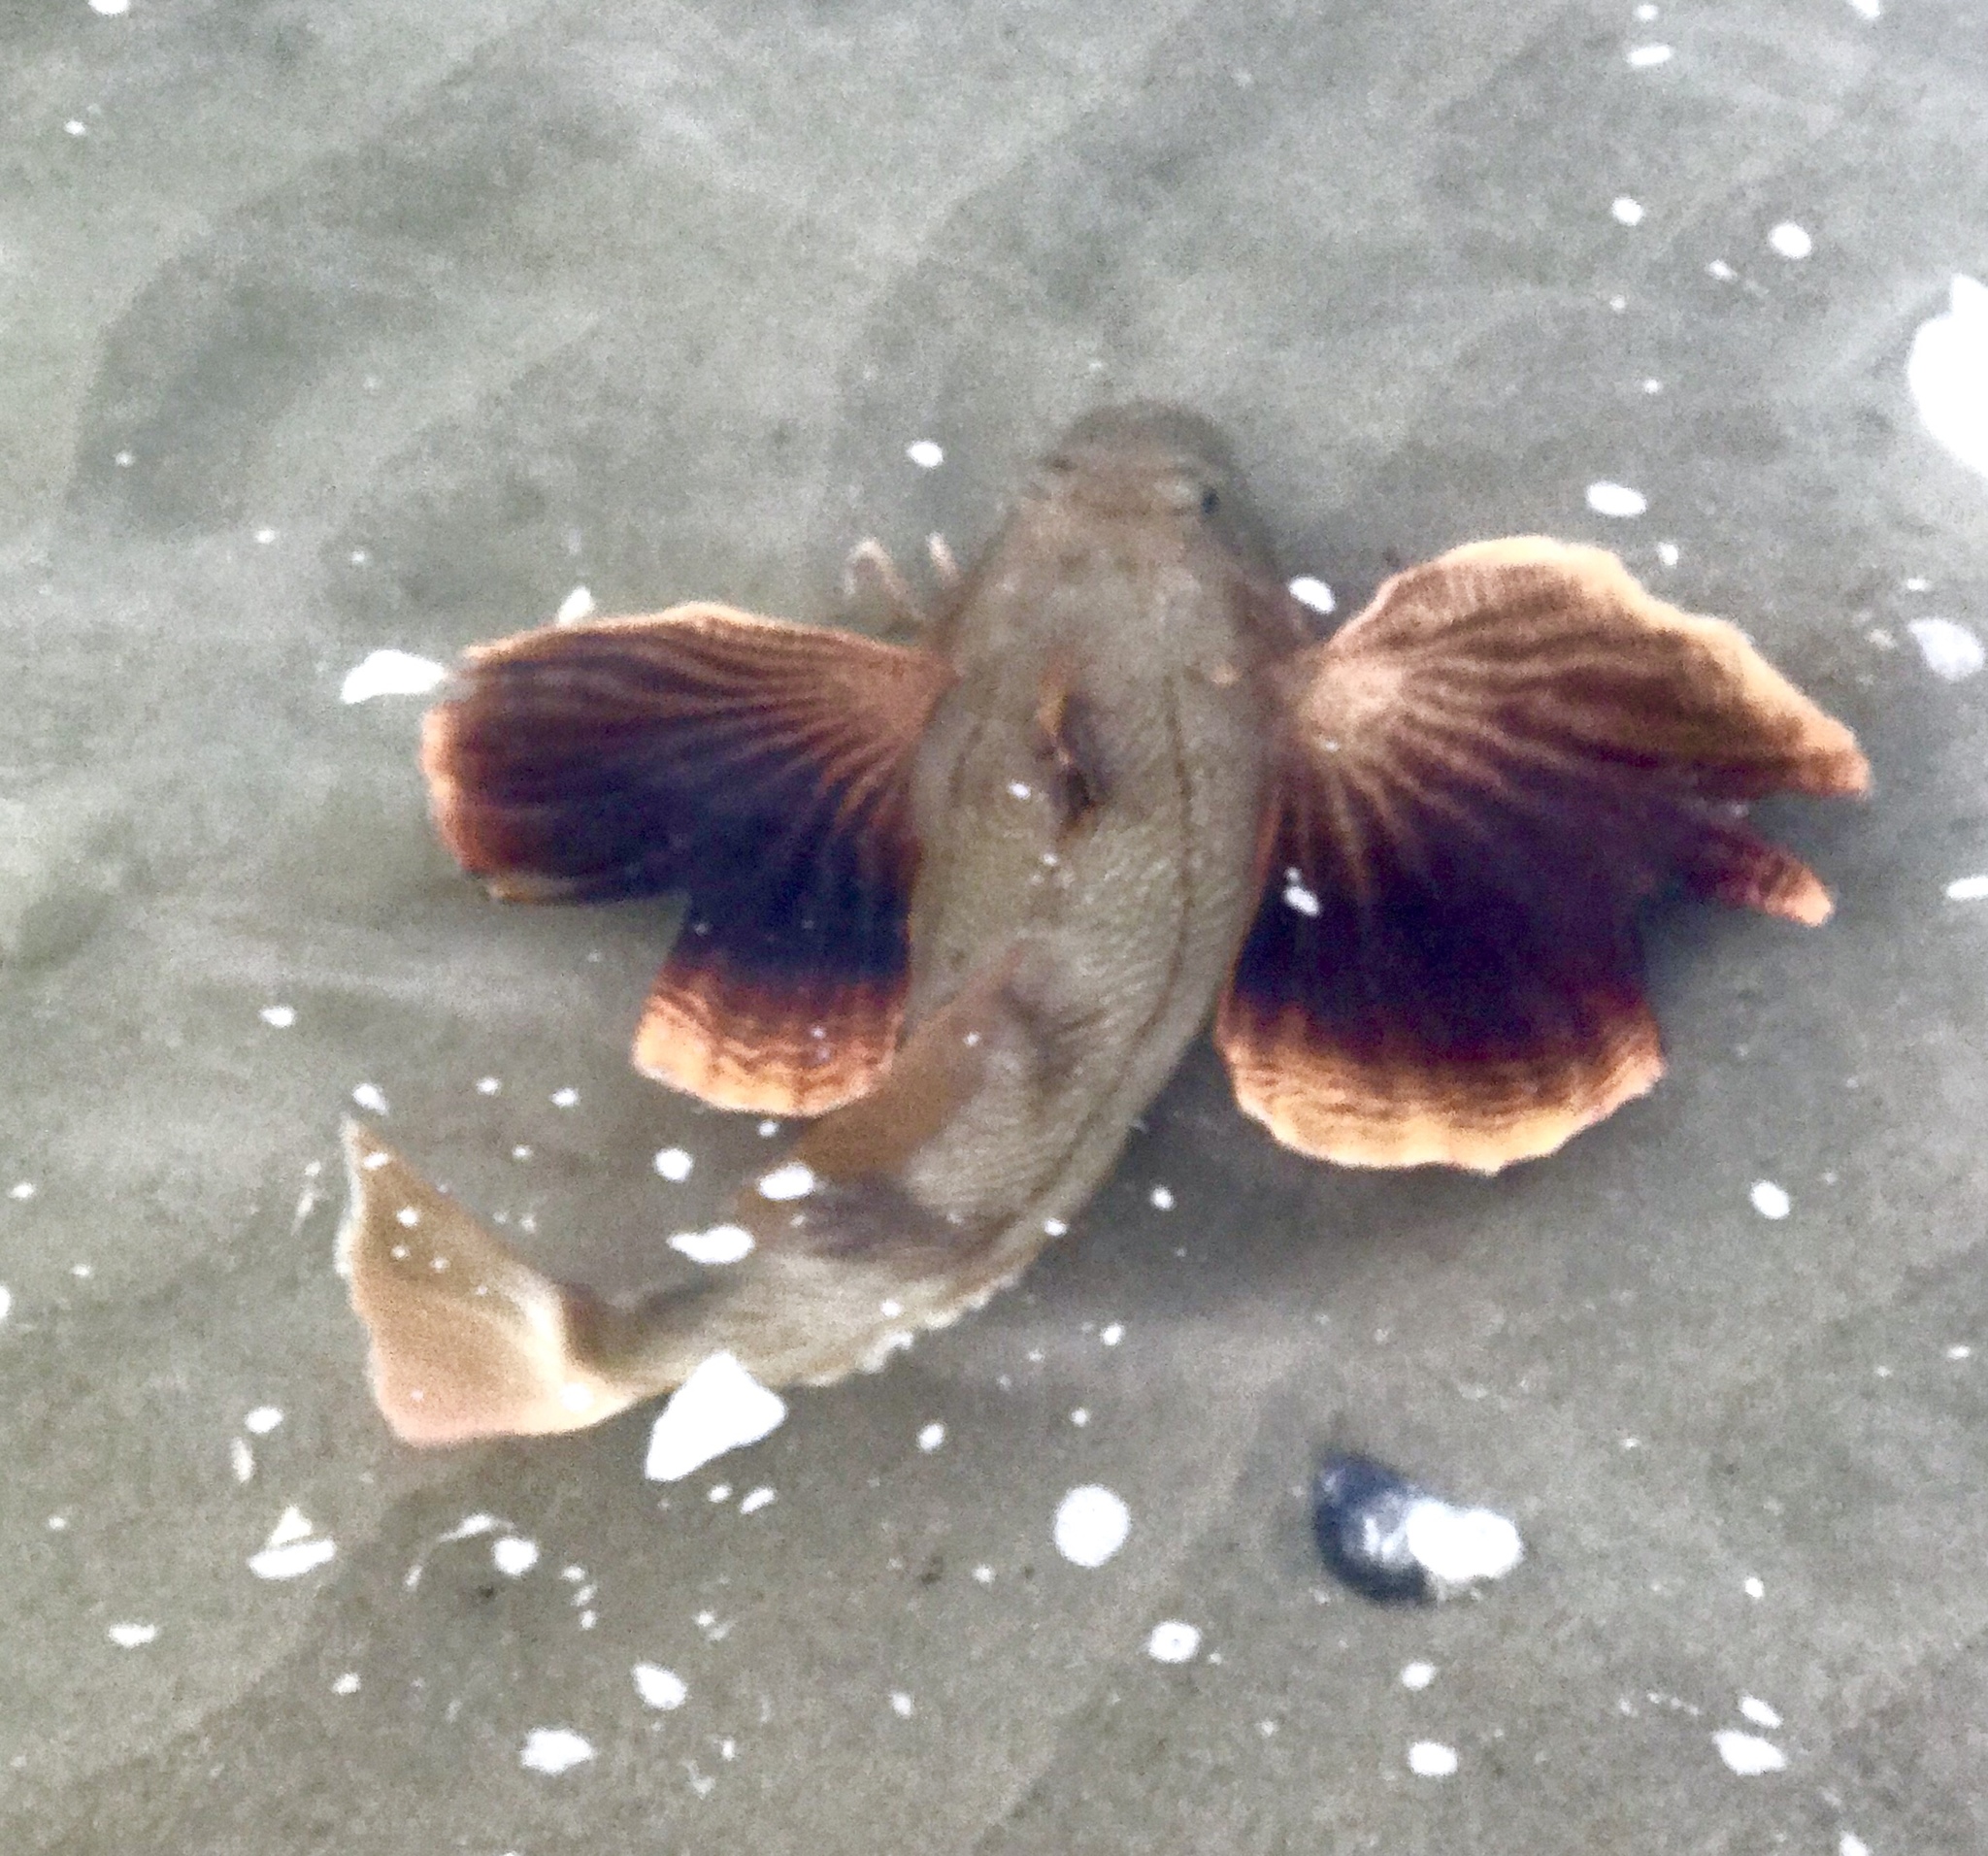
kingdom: Animalia
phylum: Chordata
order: Scorpaeniformes
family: Triglidae
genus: Prionotus
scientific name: Prionotus evolans
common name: Striped searobin
